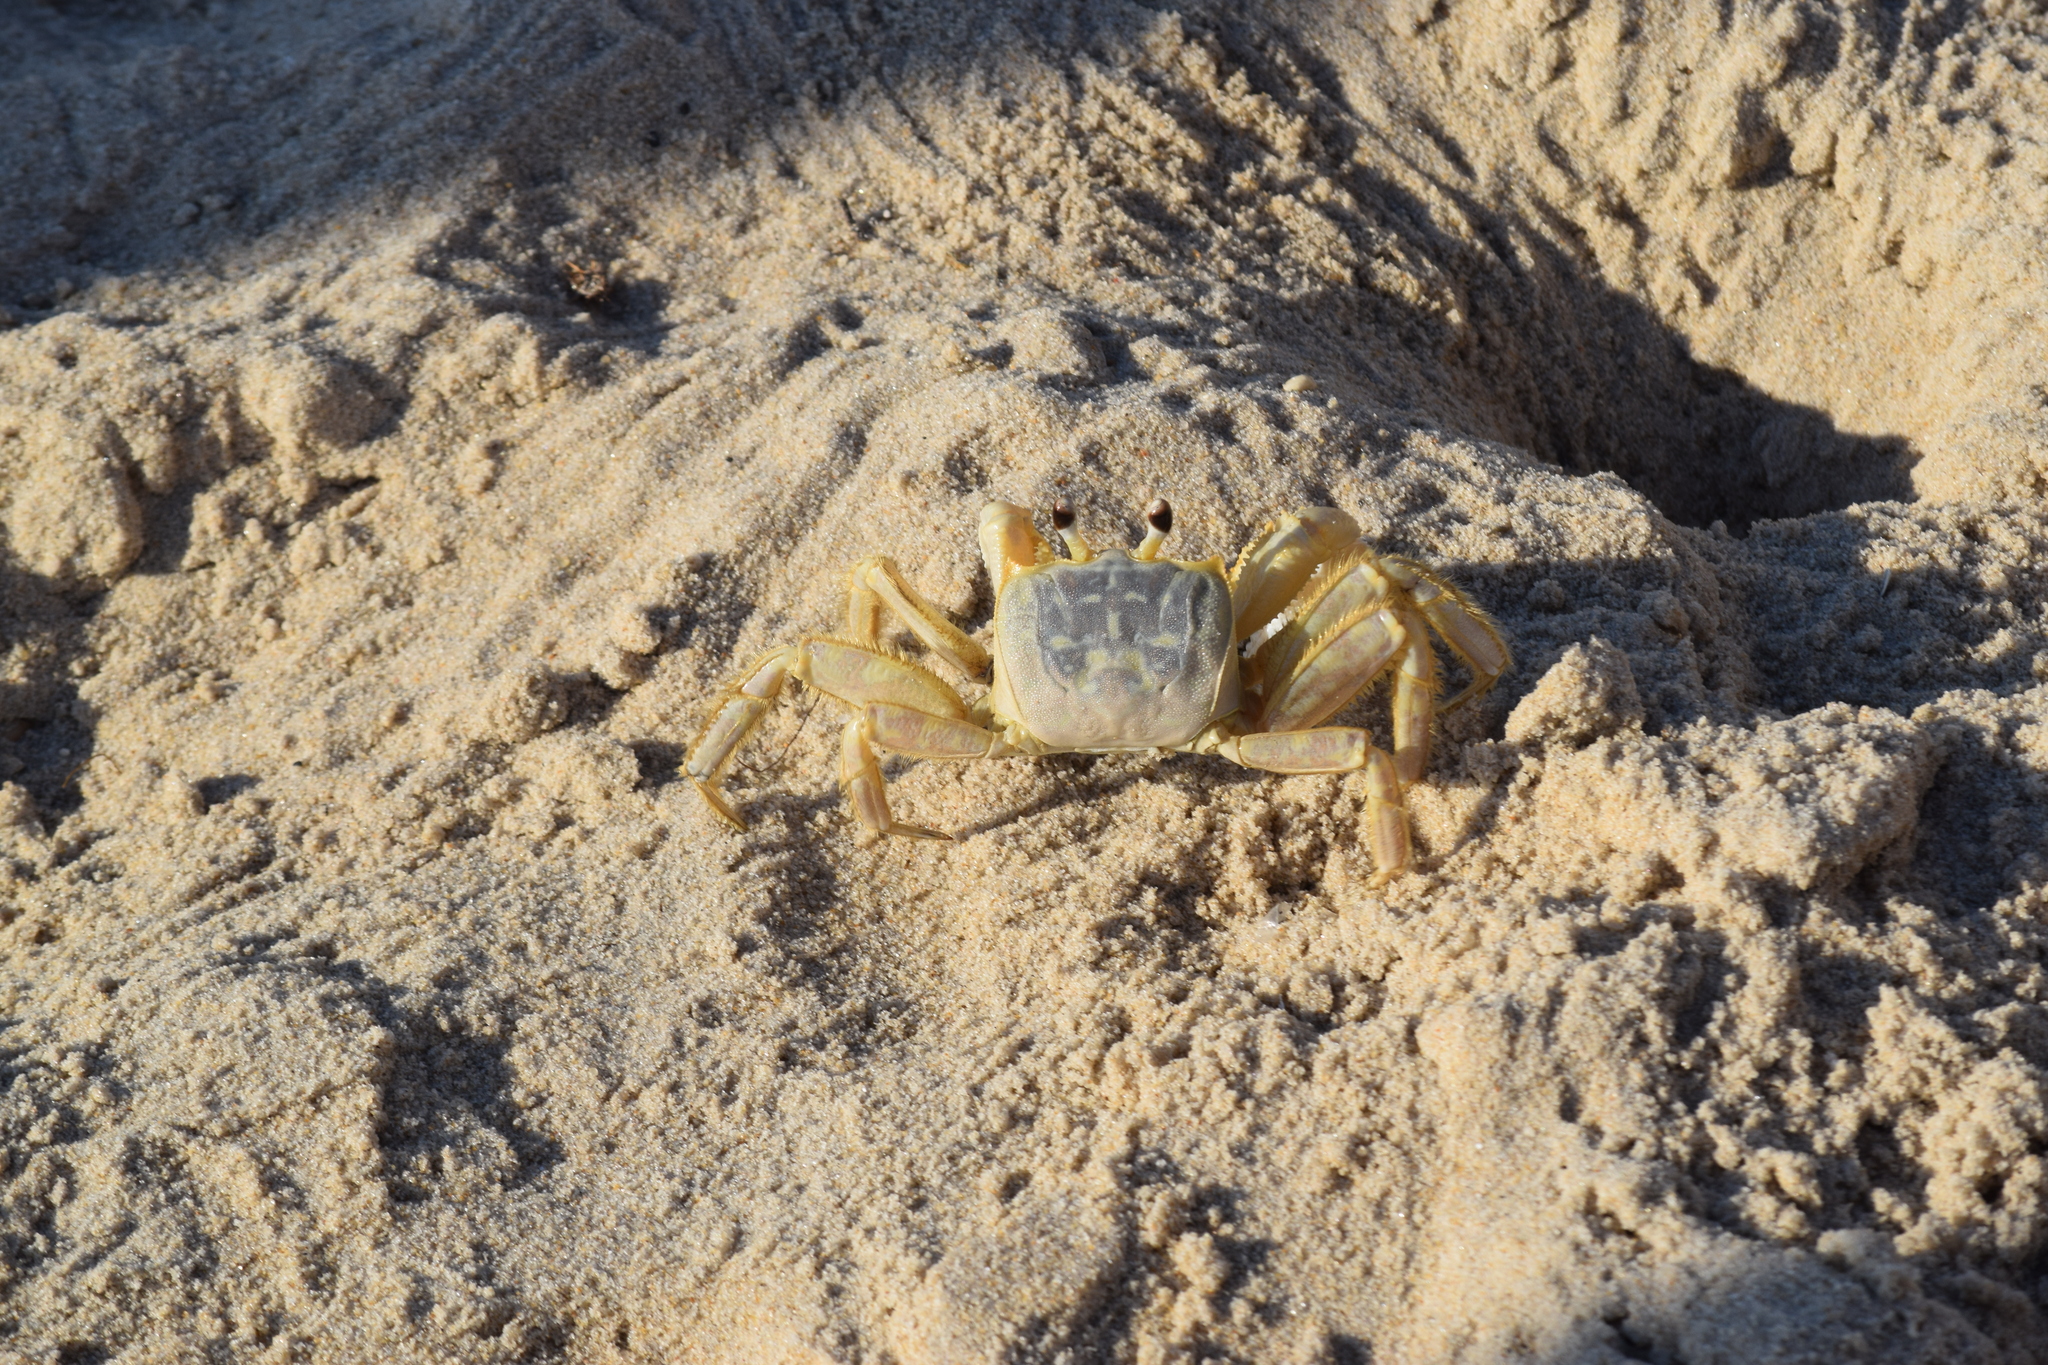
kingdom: Animalia
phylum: Arthropoda
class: Malacostraca
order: Decapoda
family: Ocypodidae
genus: Ocypode
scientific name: Ocypode quadrata
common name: Ghost crab
